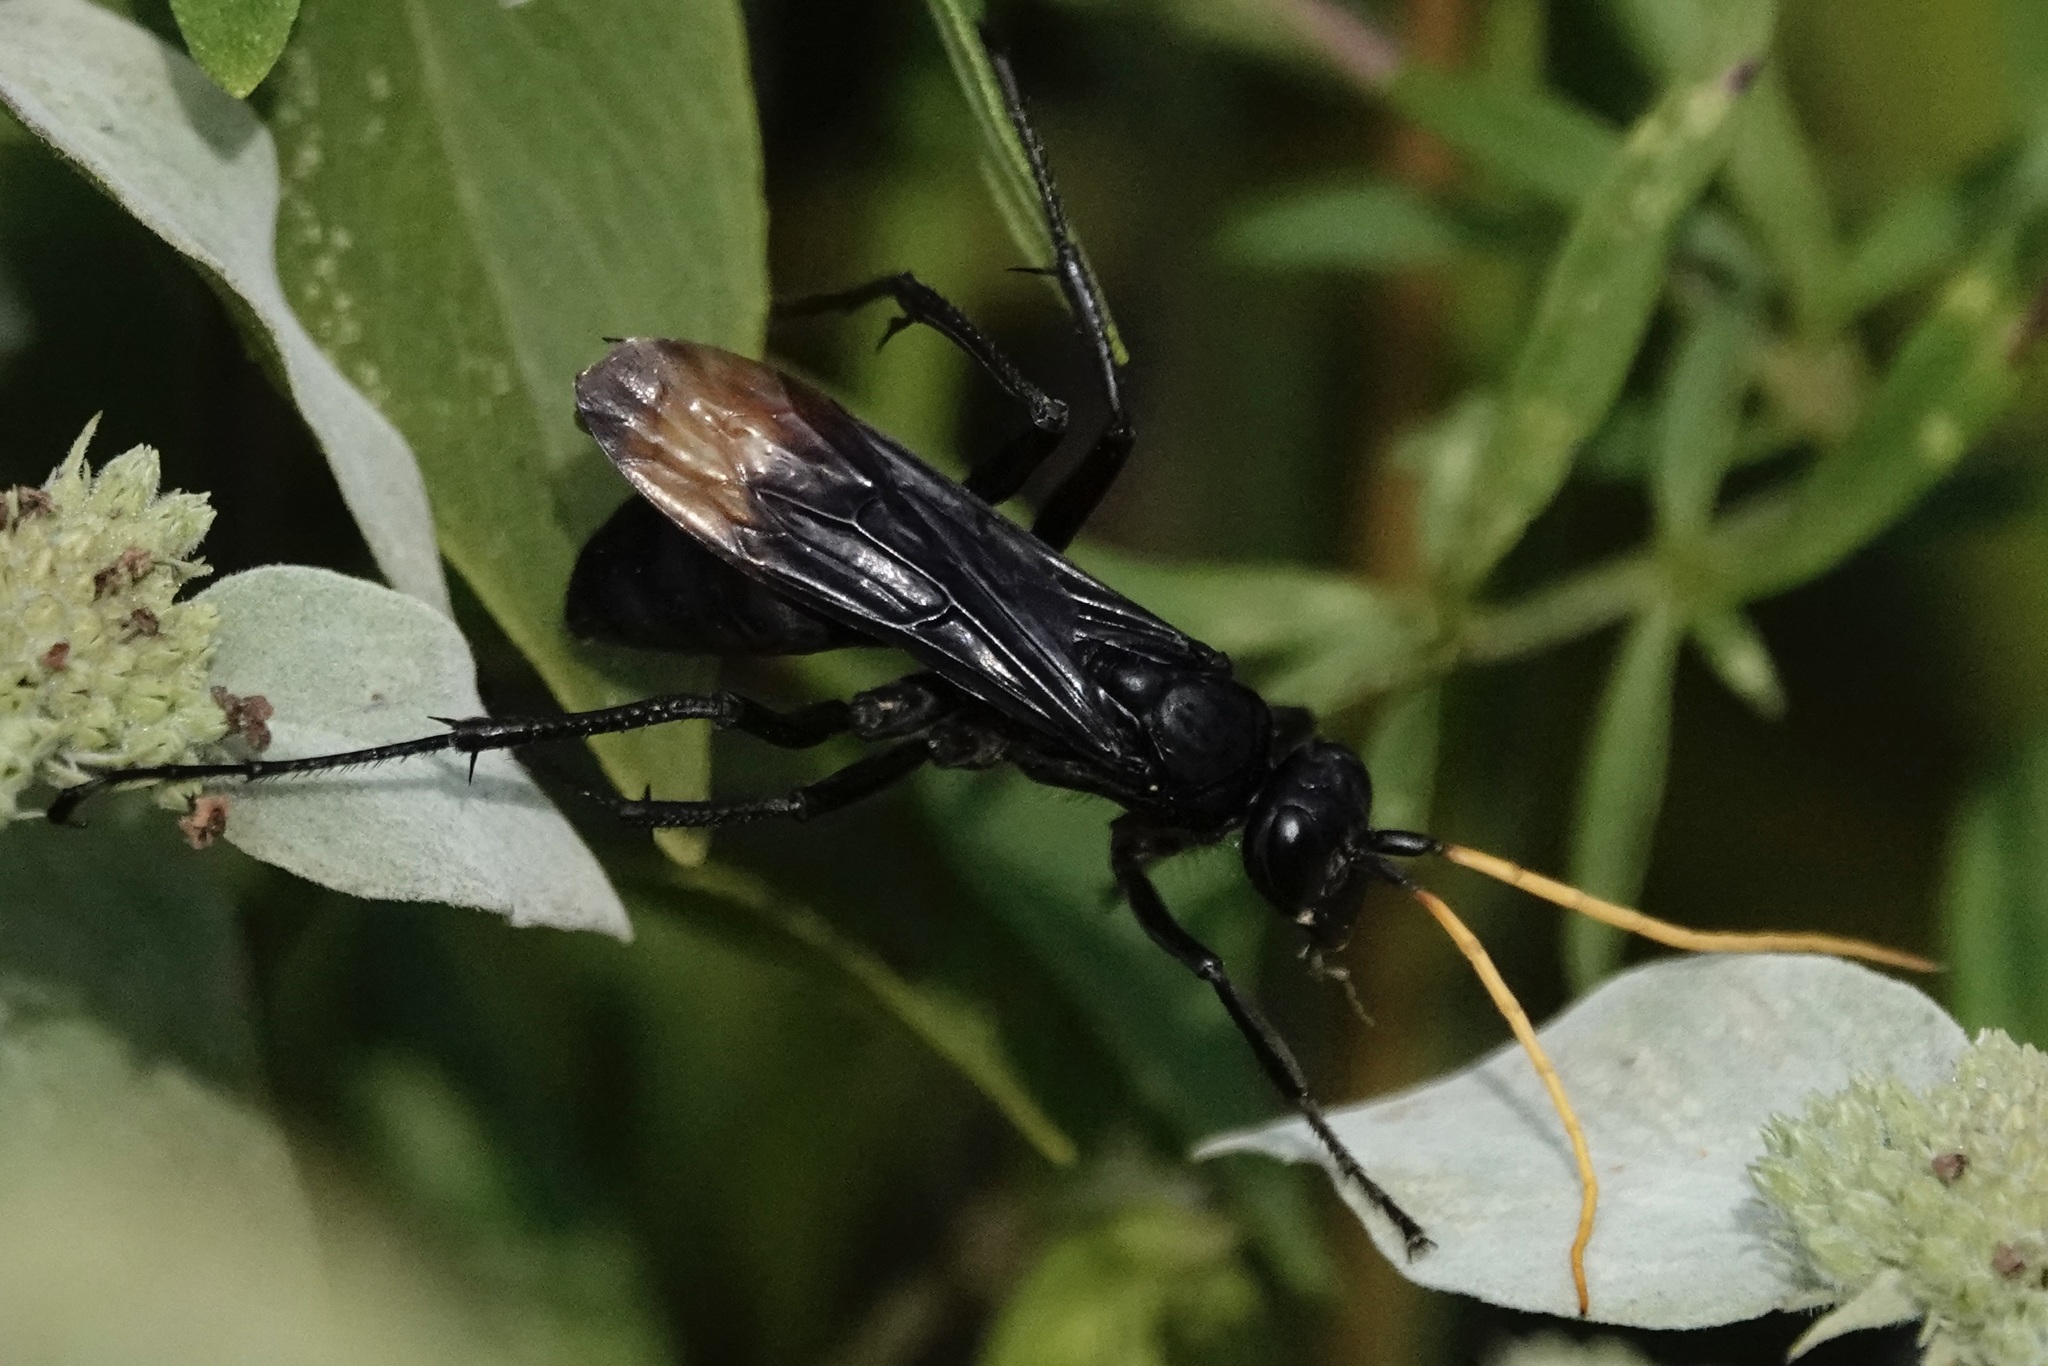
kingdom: Animalia
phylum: Arthropoda
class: Insecta
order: Hymenoptera
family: Pompilidae
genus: Entypus
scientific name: Entypus unifasciatus
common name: Eastern tawny-horned spider wasp
